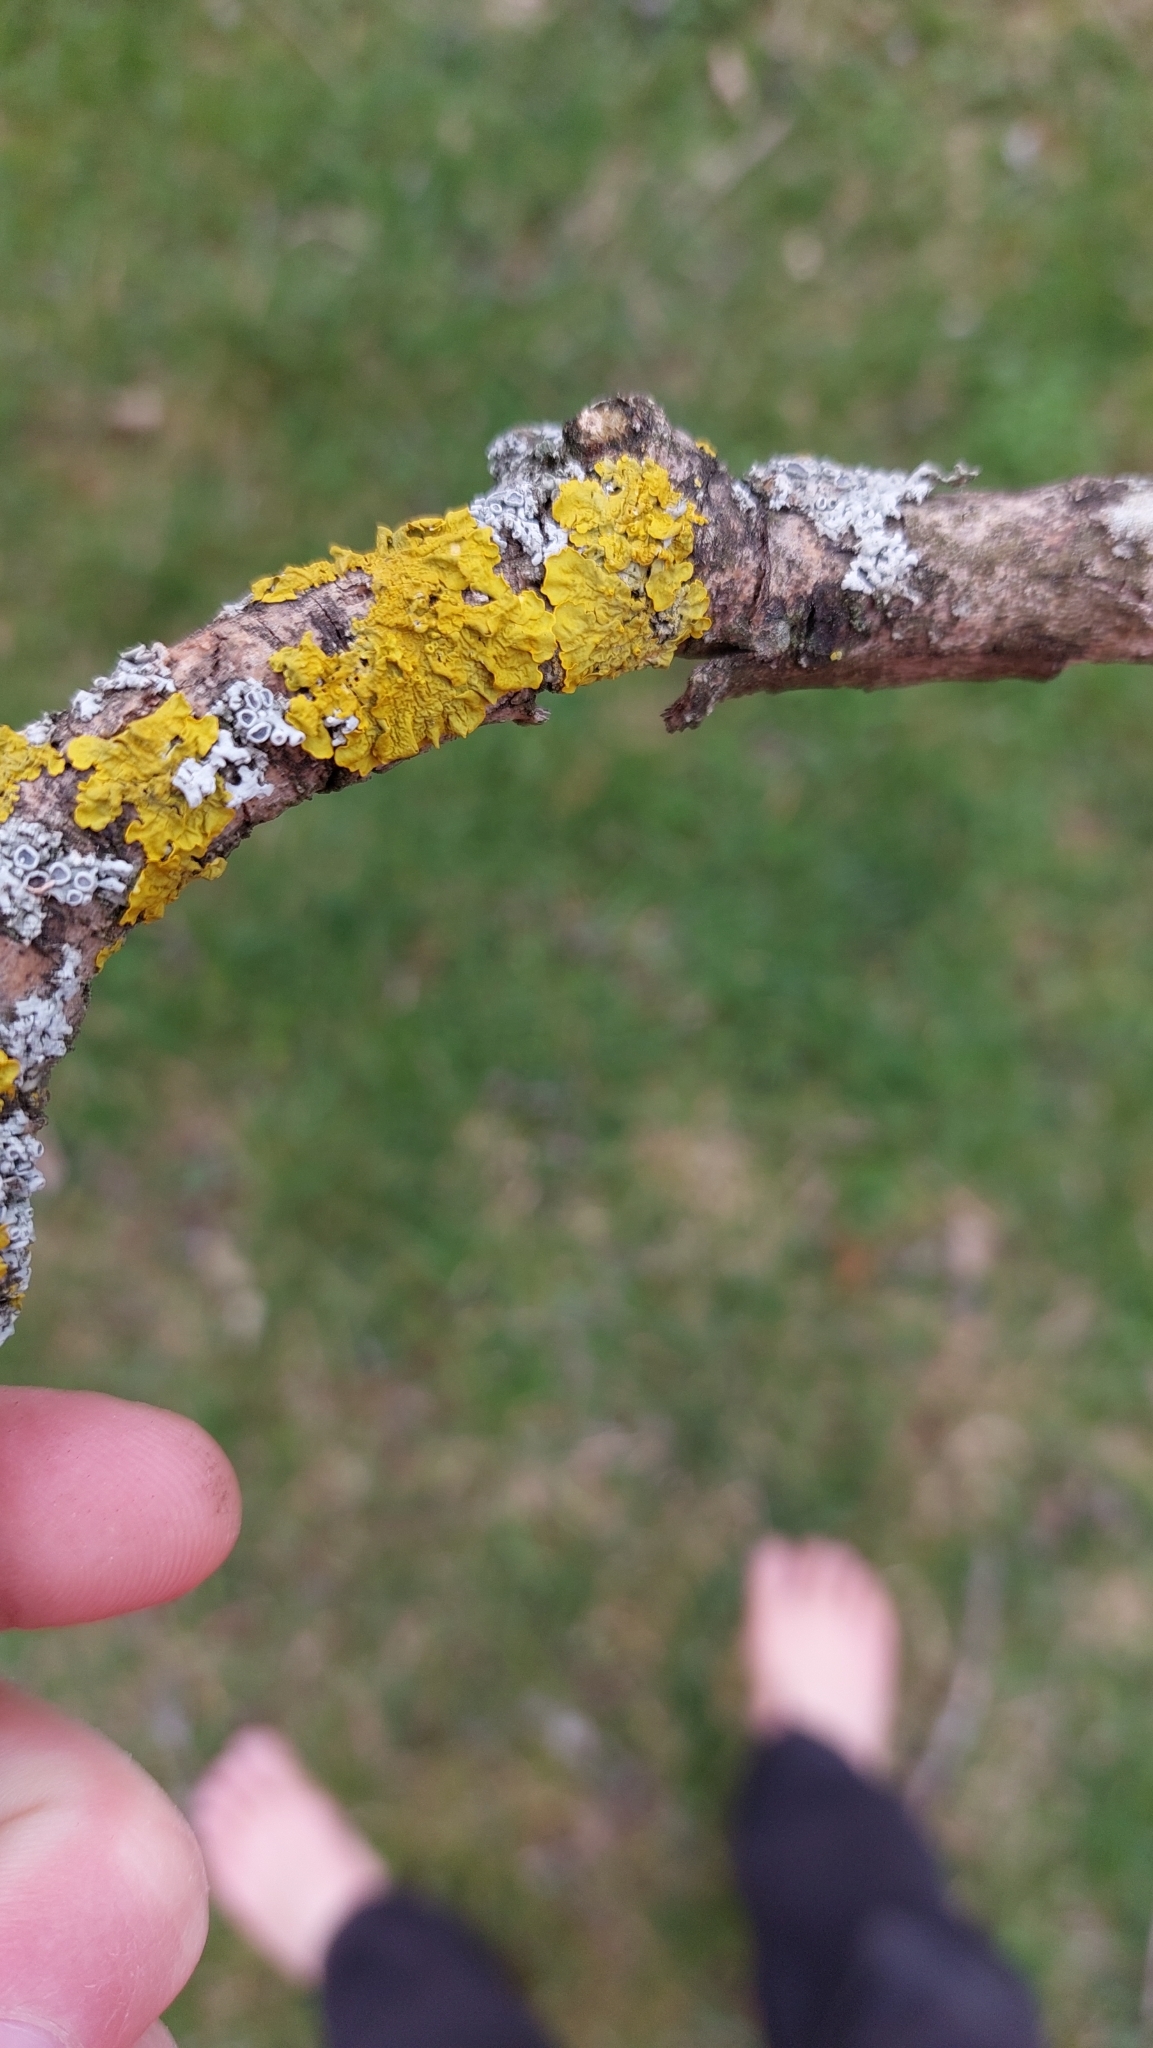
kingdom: Fungi
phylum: Ascomycota
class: Lecanoromycetes
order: Teloschistales
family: Teloschistaceae
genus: Xanthoria
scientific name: Xanthoria parietina
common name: Common orange lichen
